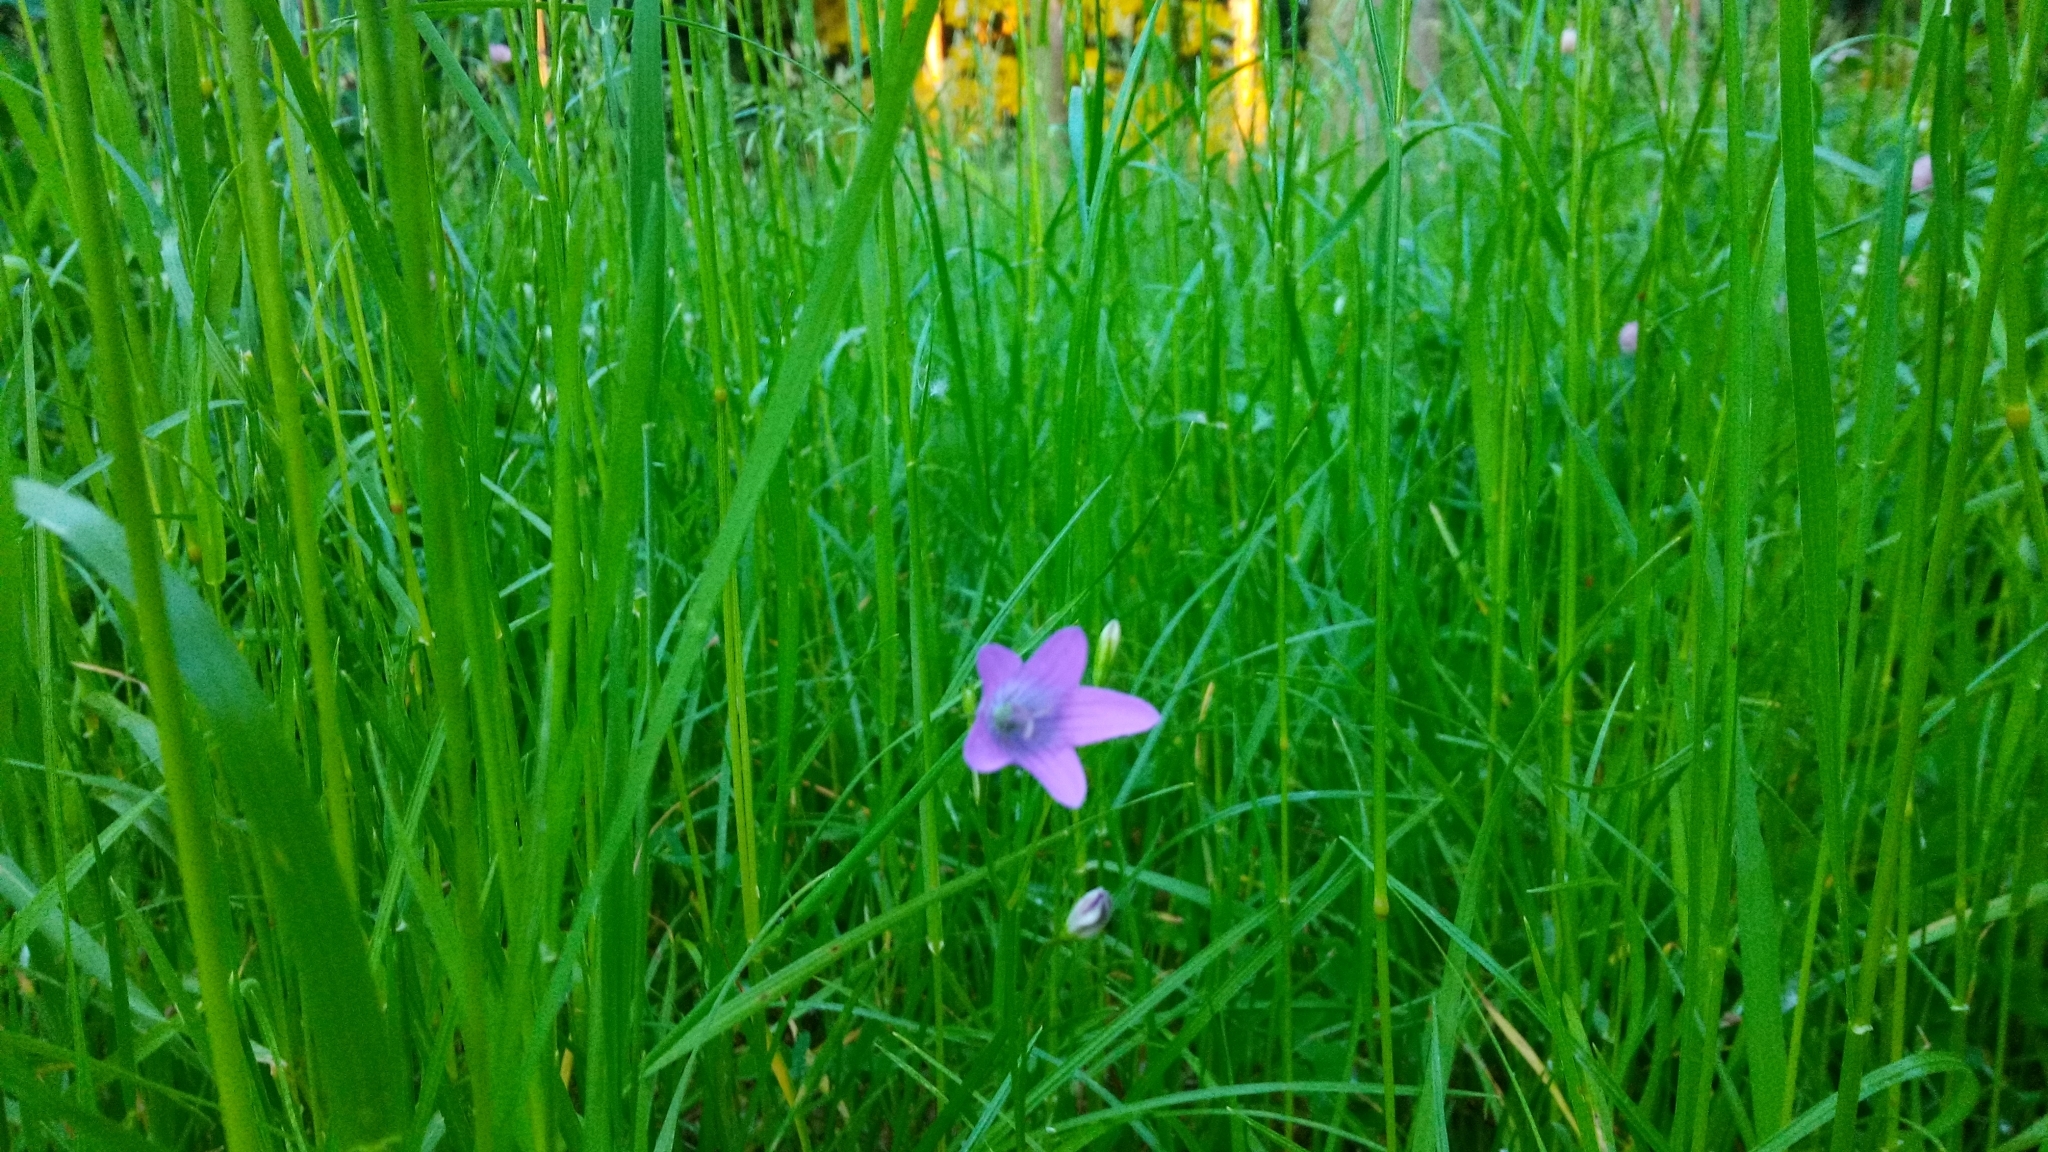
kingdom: Plantae
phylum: Tracheophyta
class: Magnoliopsida
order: Asterales
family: Campanulaceae
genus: Campanula
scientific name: Campanula patula
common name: Spreading bellflower
